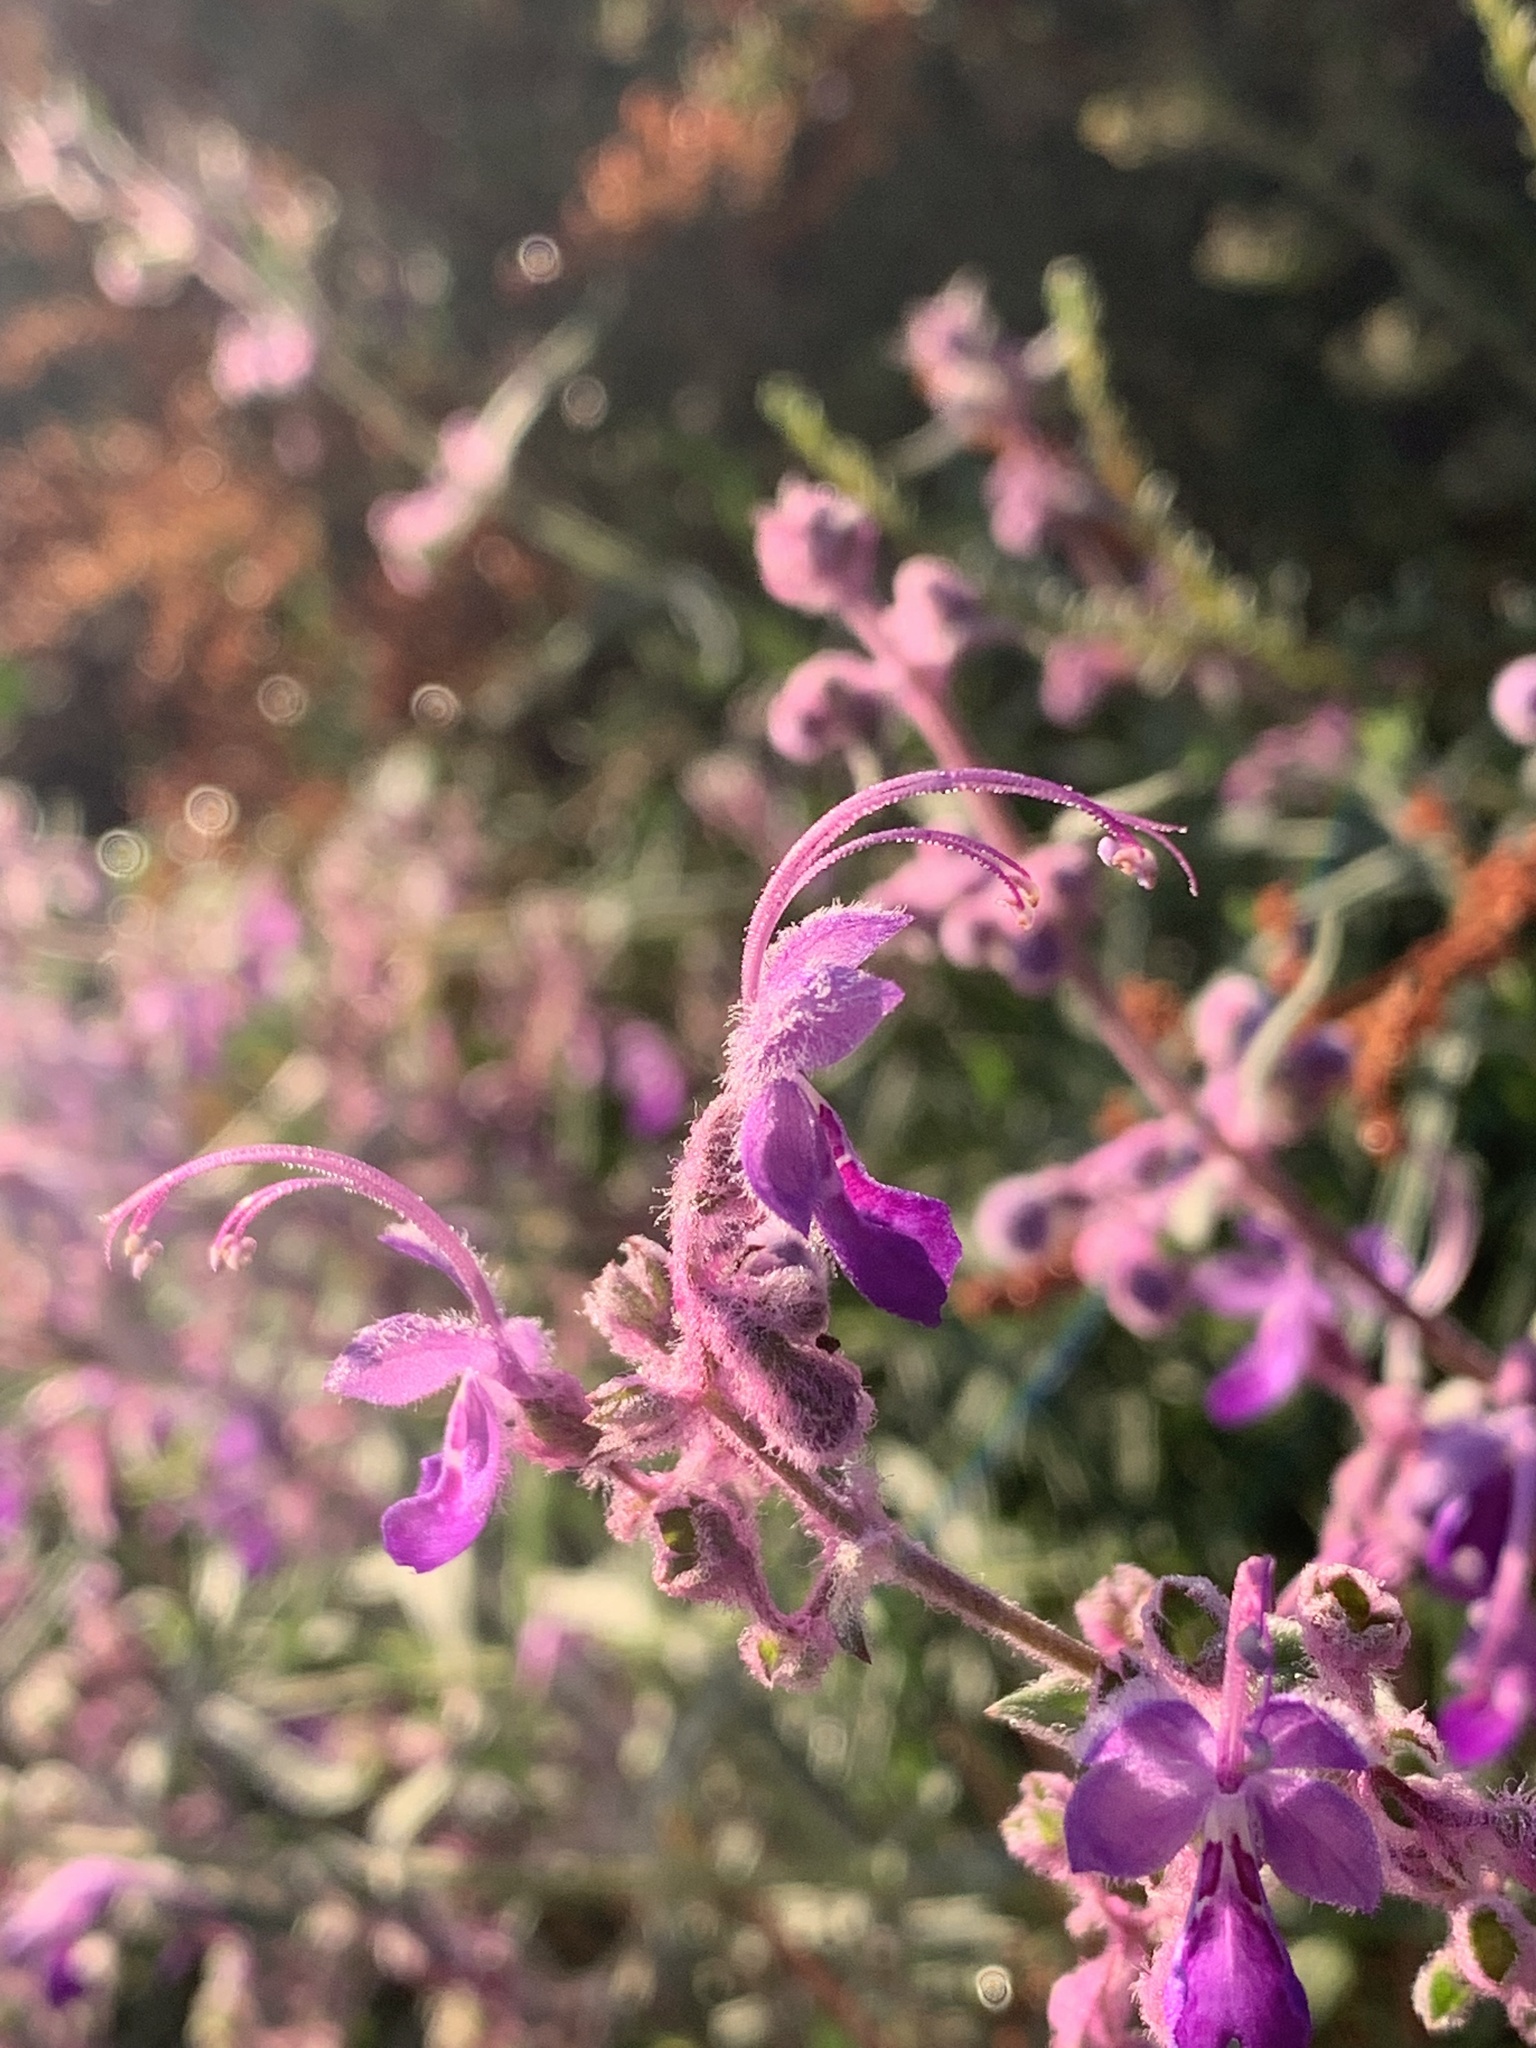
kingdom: Plantae
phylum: Tracheophyta
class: Magnoliopsida
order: Lamiales
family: Lamiaceae
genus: Trichostema
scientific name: Trichostema parishii
